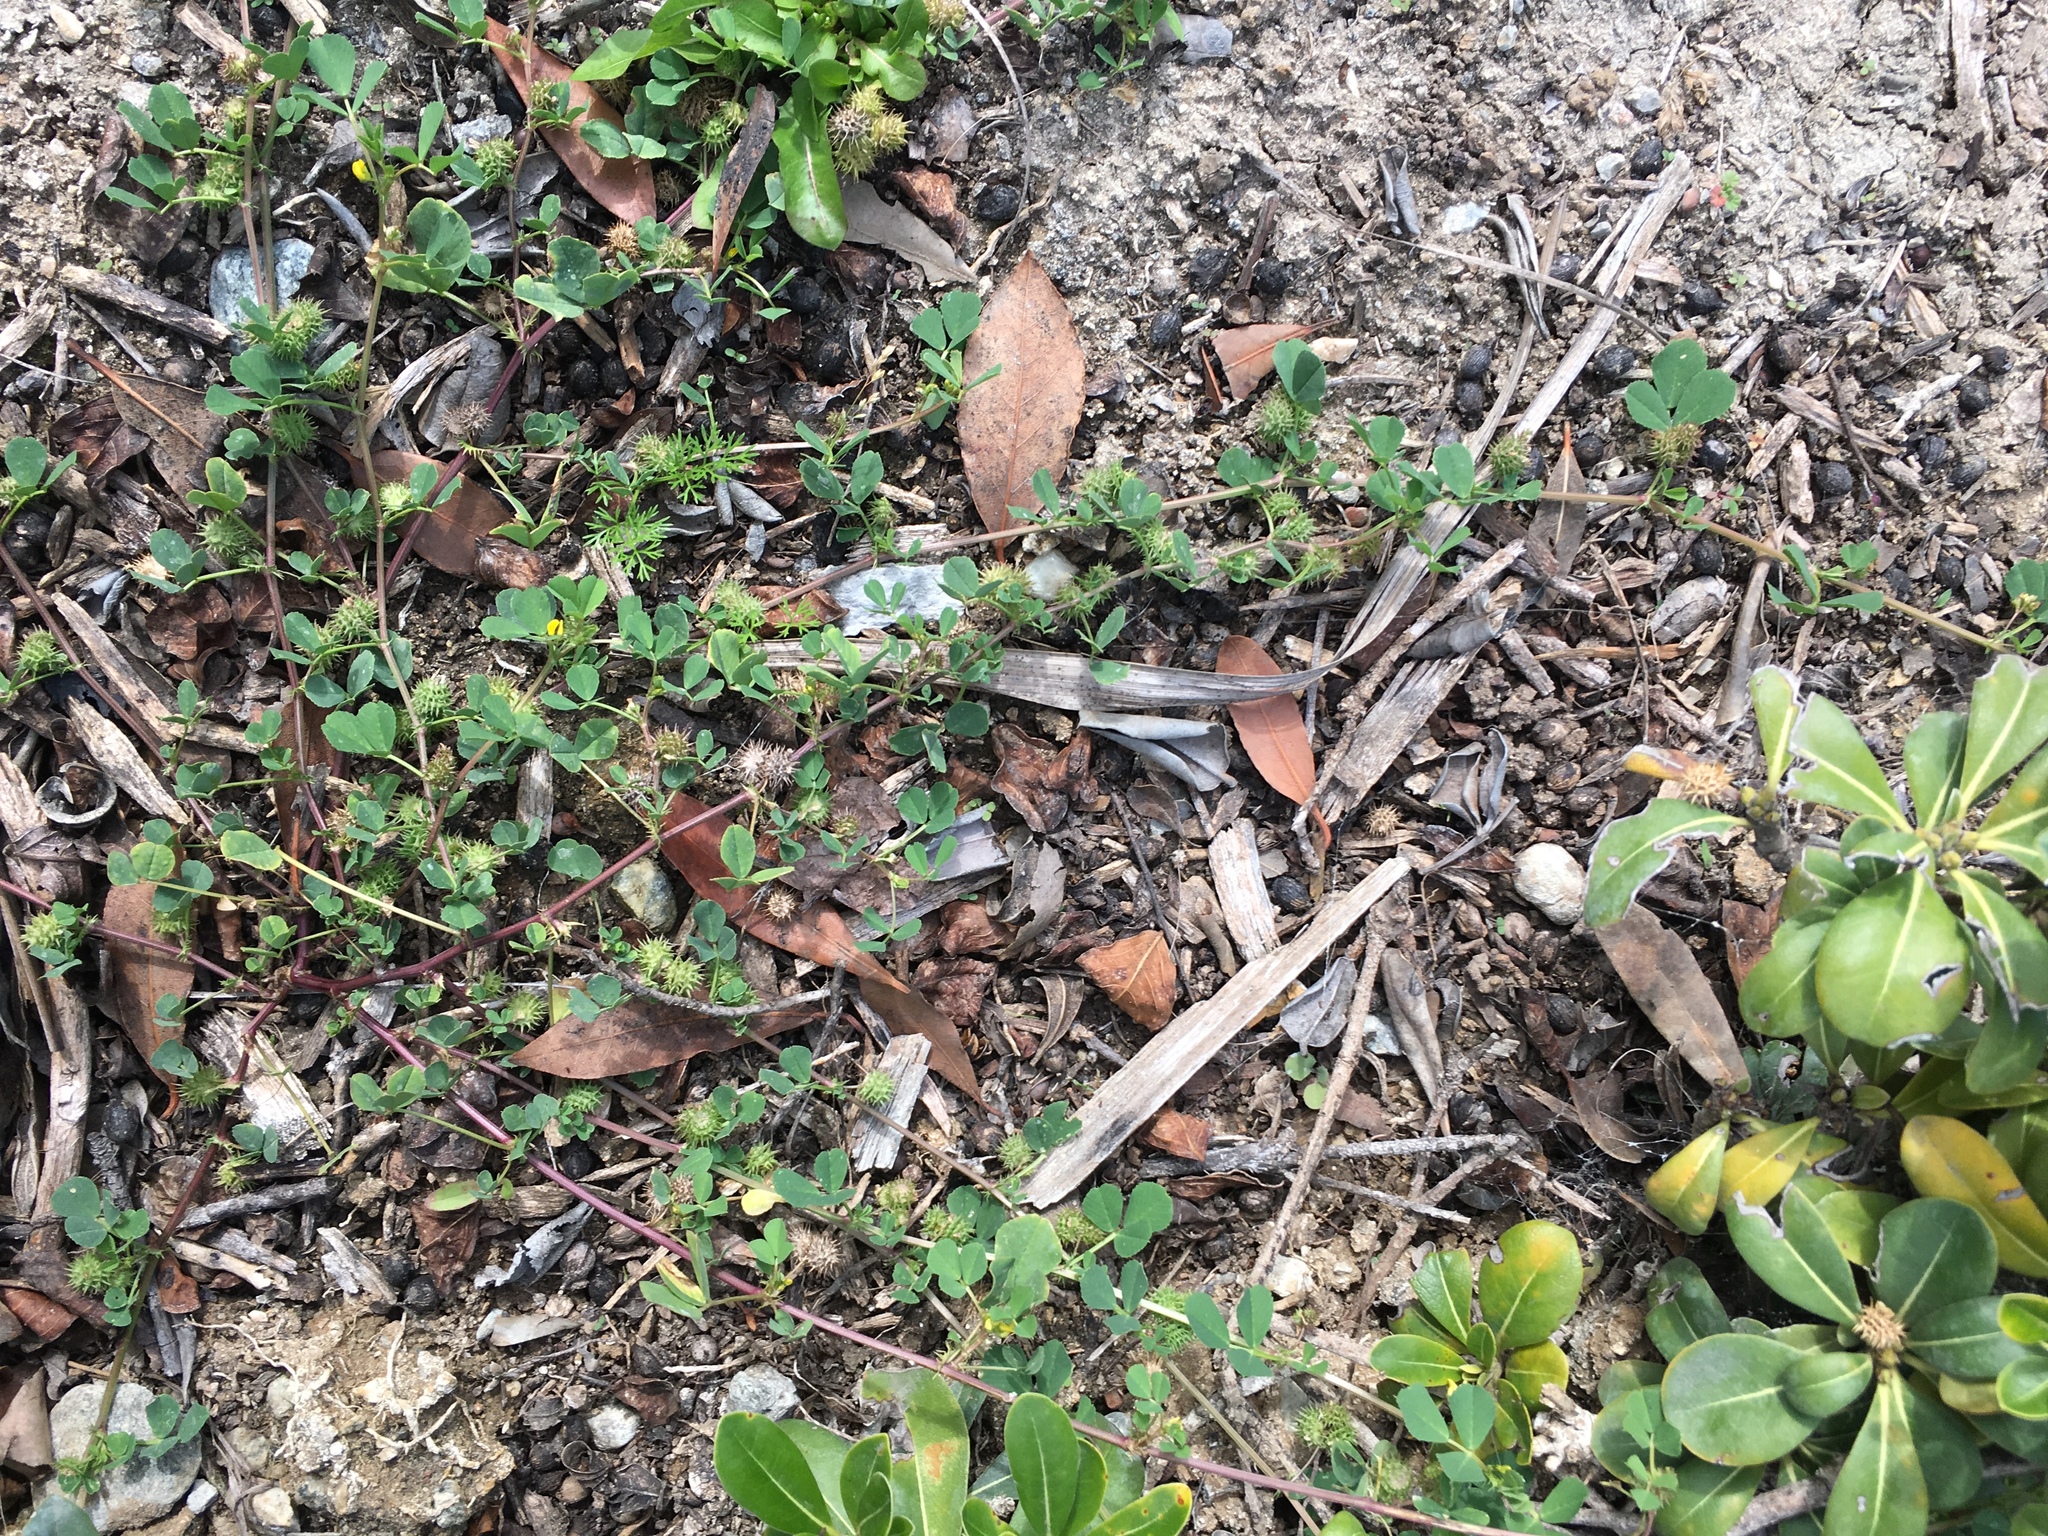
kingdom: Plantae
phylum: Tracheophyta
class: Magnoliopsida
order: Fabales
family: Fabaceae
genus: Medicago
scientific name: Medicago polymorpha
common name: Burclover
